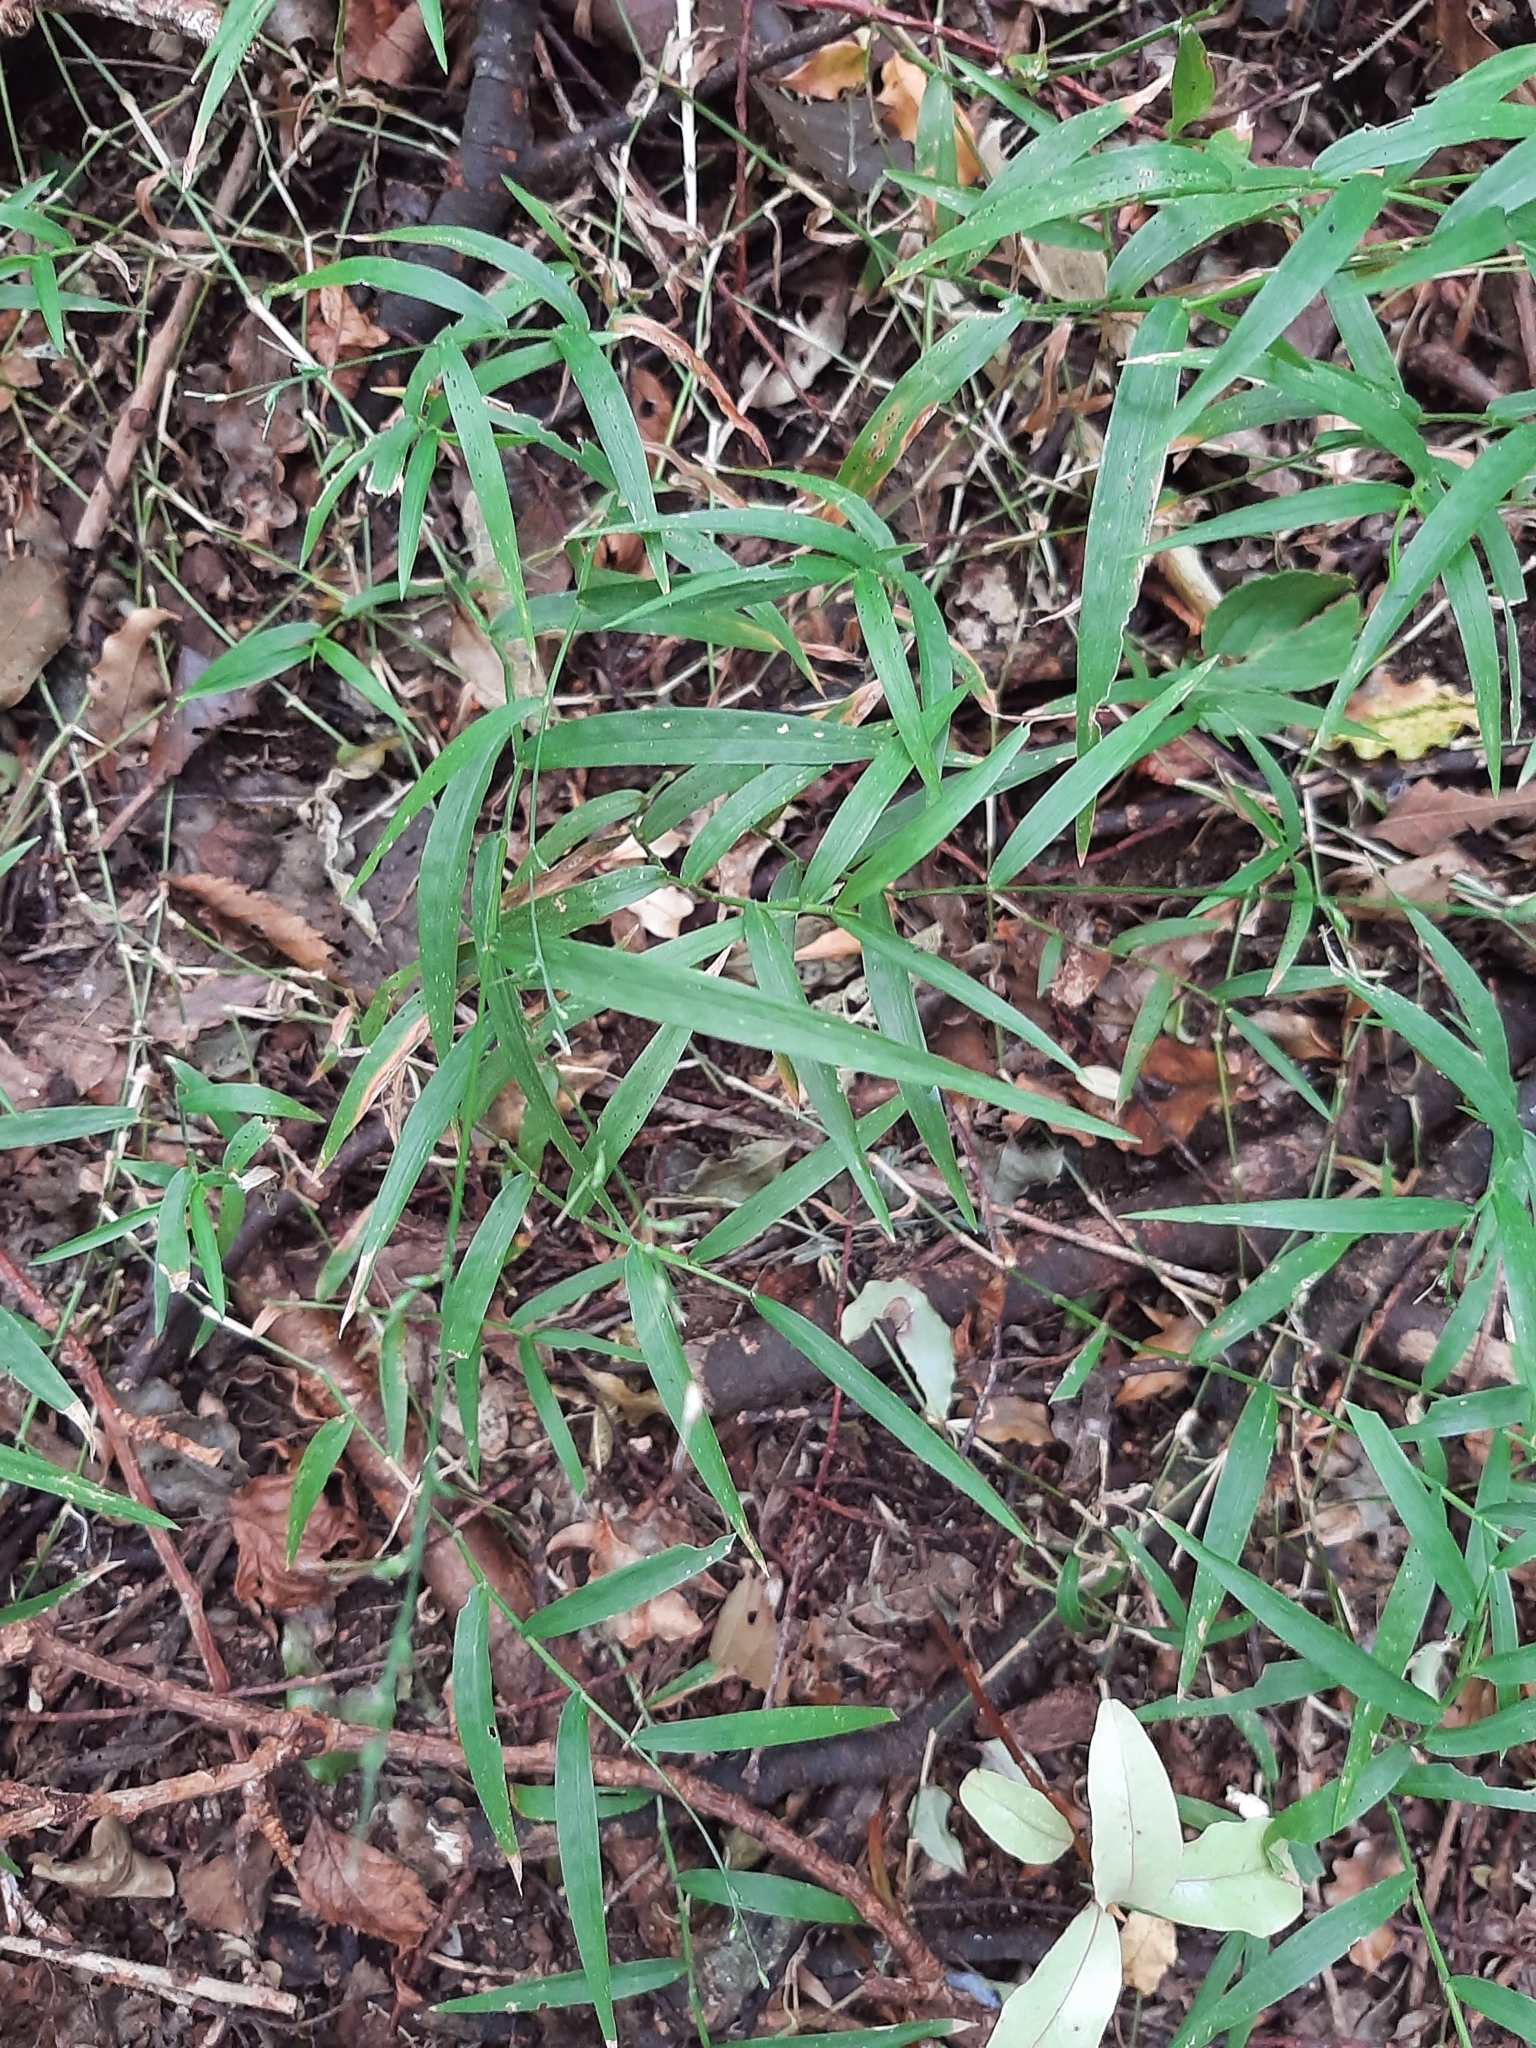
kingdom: Plantae
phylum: Tracheophyta
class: Liliopsida
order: Poales
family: Poaceae
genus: Oplismenus
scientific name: Oplismenus hirtellus
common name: Basketgrass
